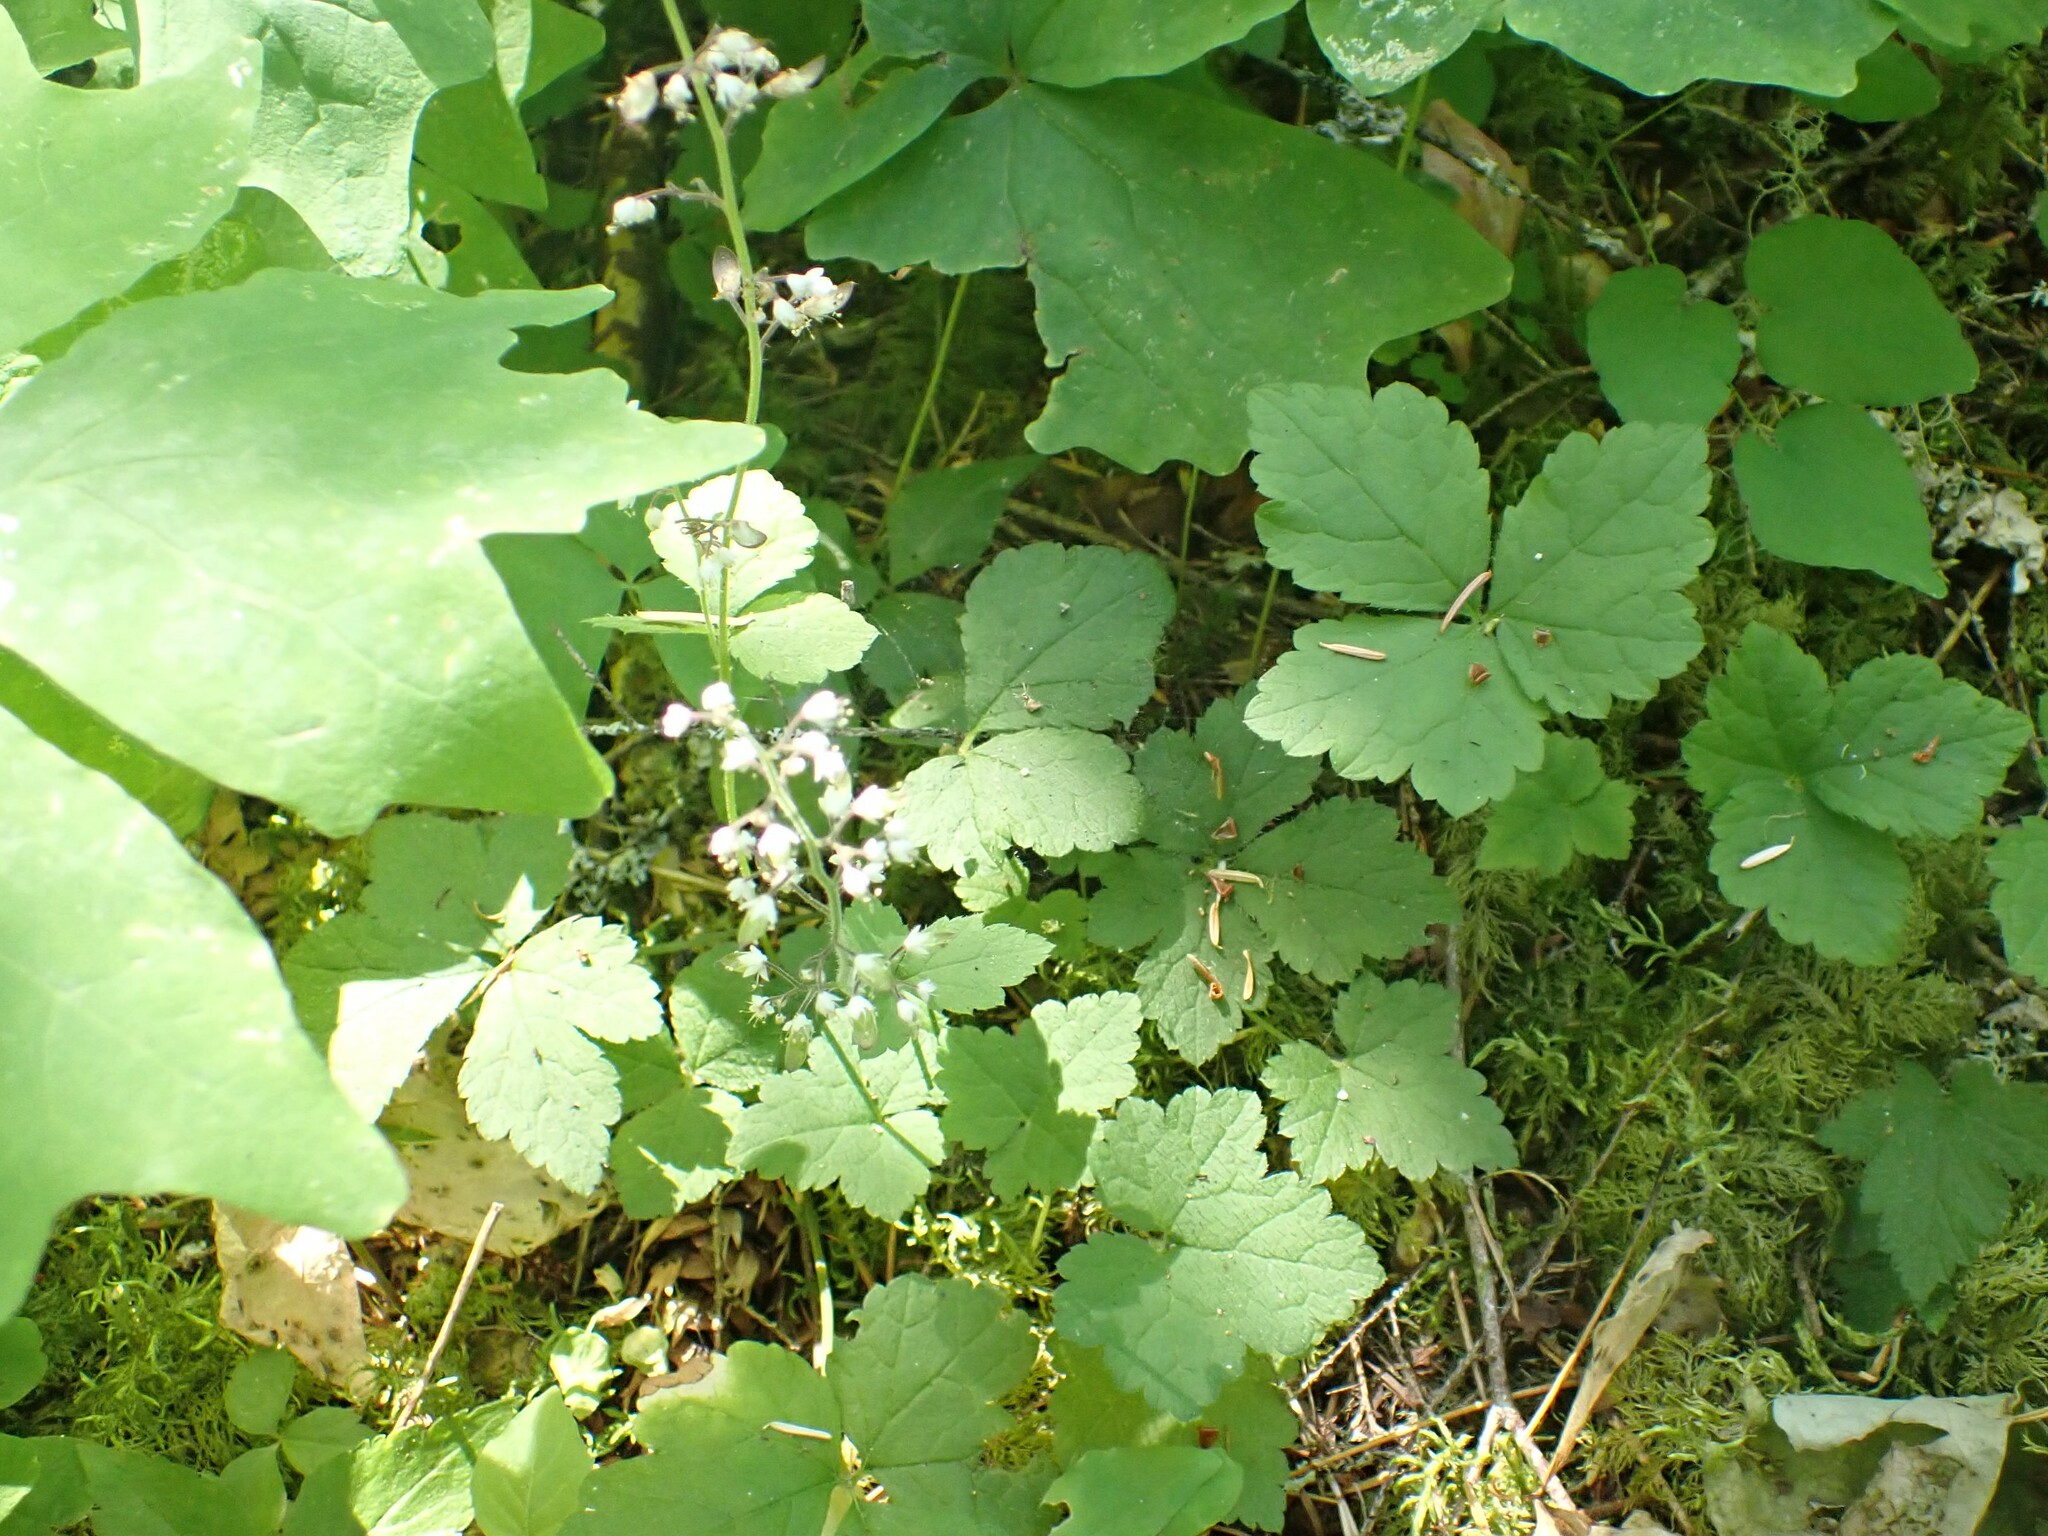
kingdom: Plantae
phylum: Tracheophyta
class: Magnoliopsida
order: Saxifragales
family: Saxifragaceae
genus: Tiarella
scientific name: Tiarella trifoliata
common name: Sugar-scoop
